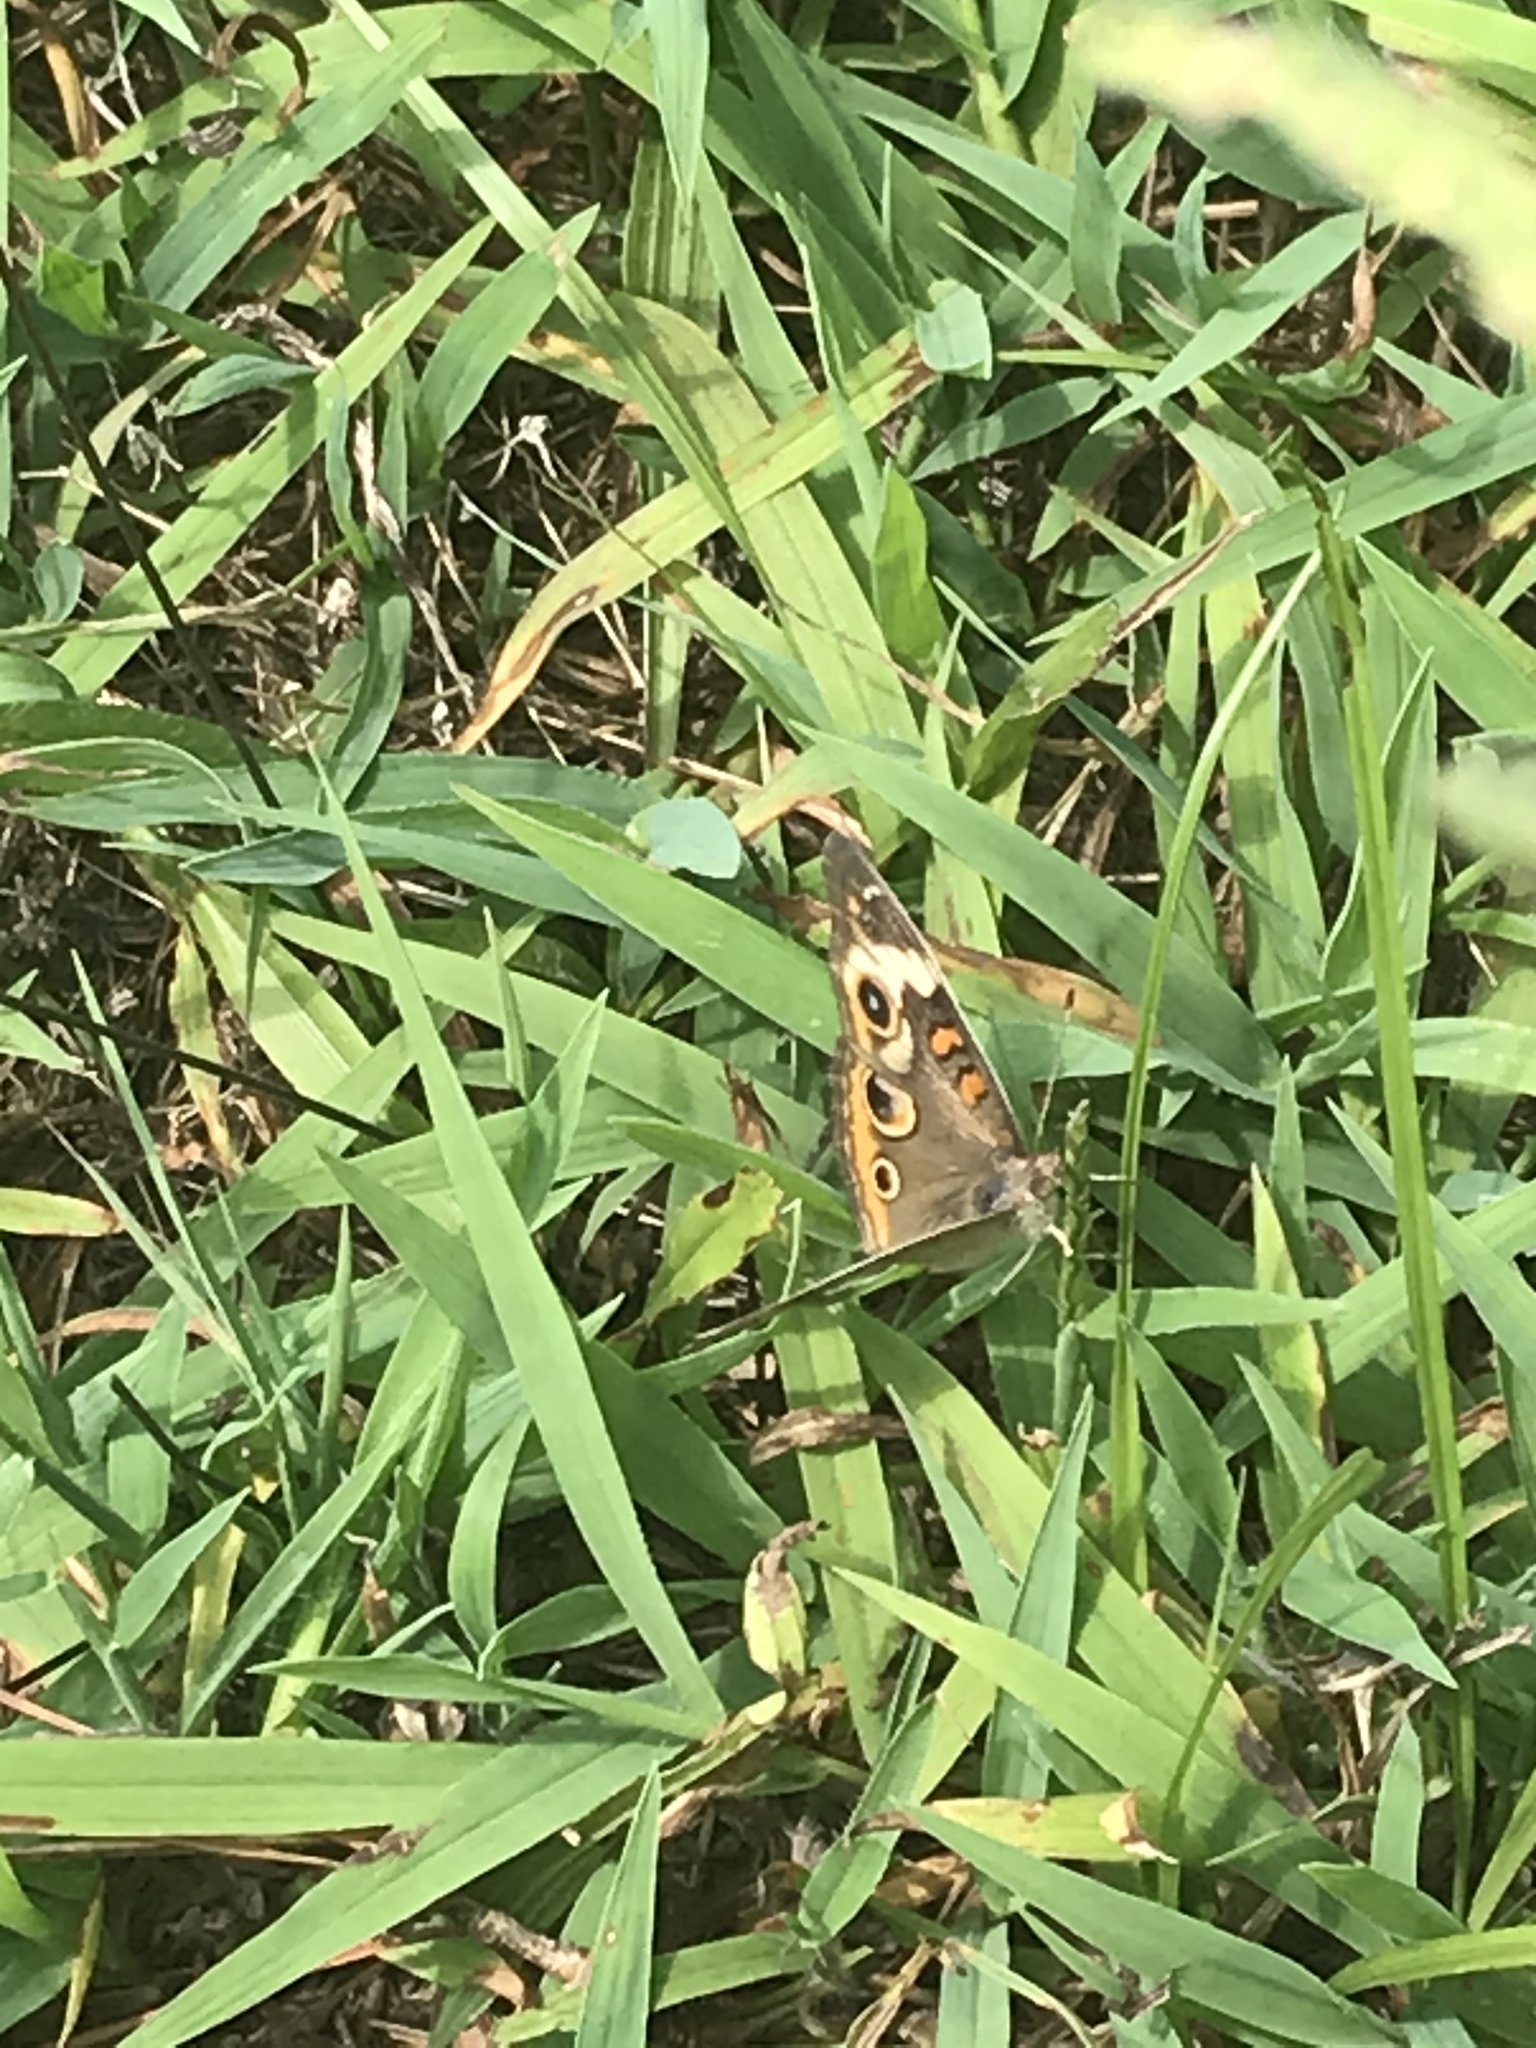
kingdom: Animalia
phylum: Arthropoda
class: Insecta
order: Lepidoptera
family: Nymphalidae
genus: Junonia
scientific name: Junonia coenia
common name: Common buckeye
